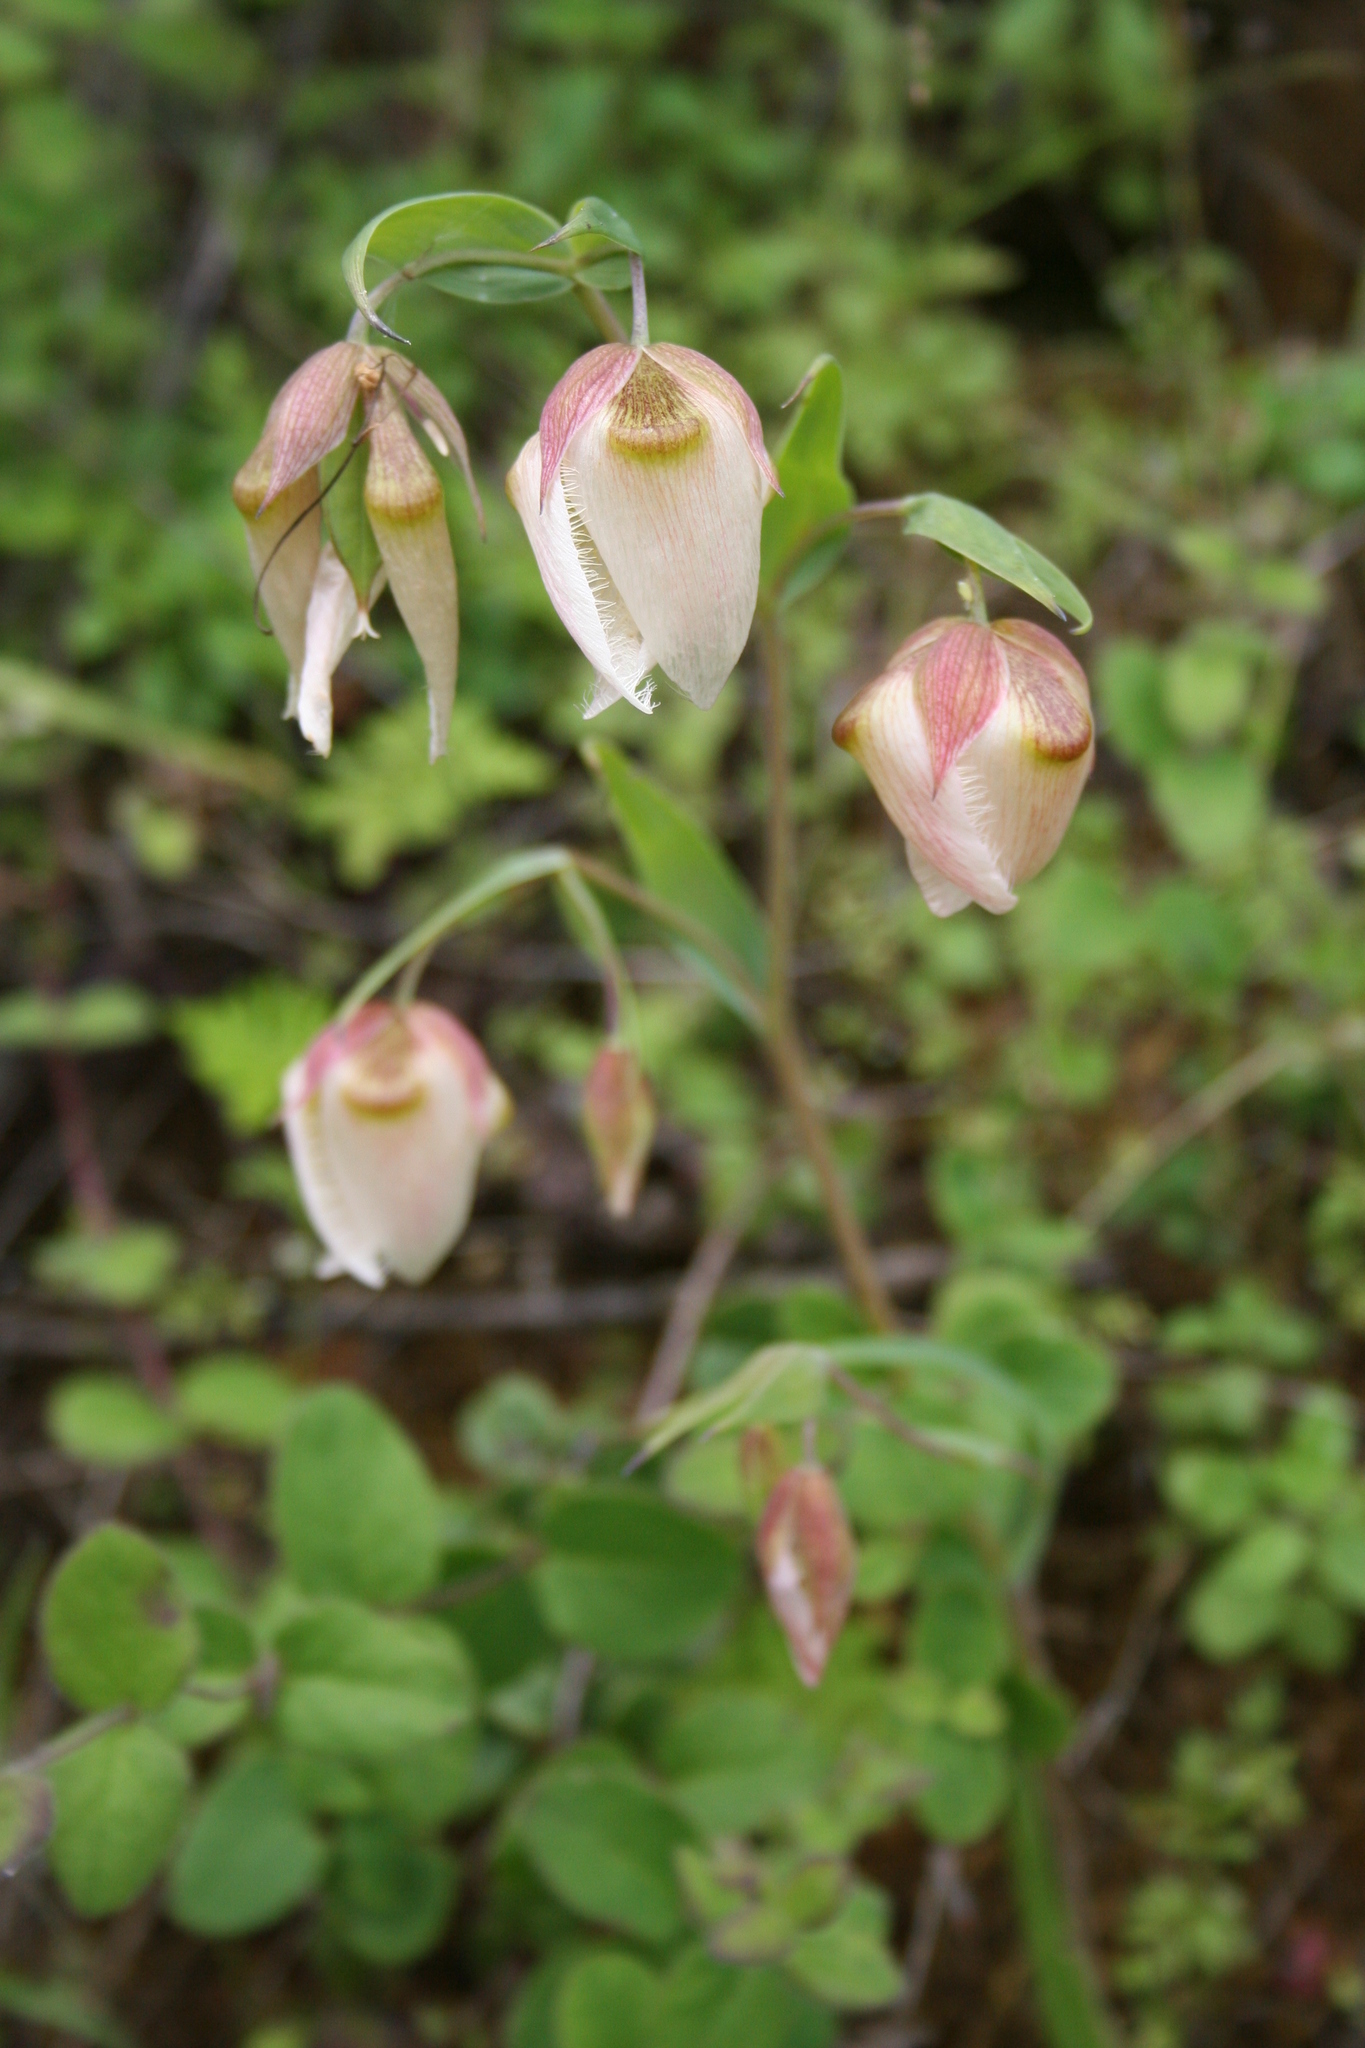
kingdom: Plantae
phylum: Tracheophyta
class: Liliopsida
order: Liliales
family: Liliaceae
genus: Calochortus
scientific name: Calochortus albus
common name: Fairy-lantern
